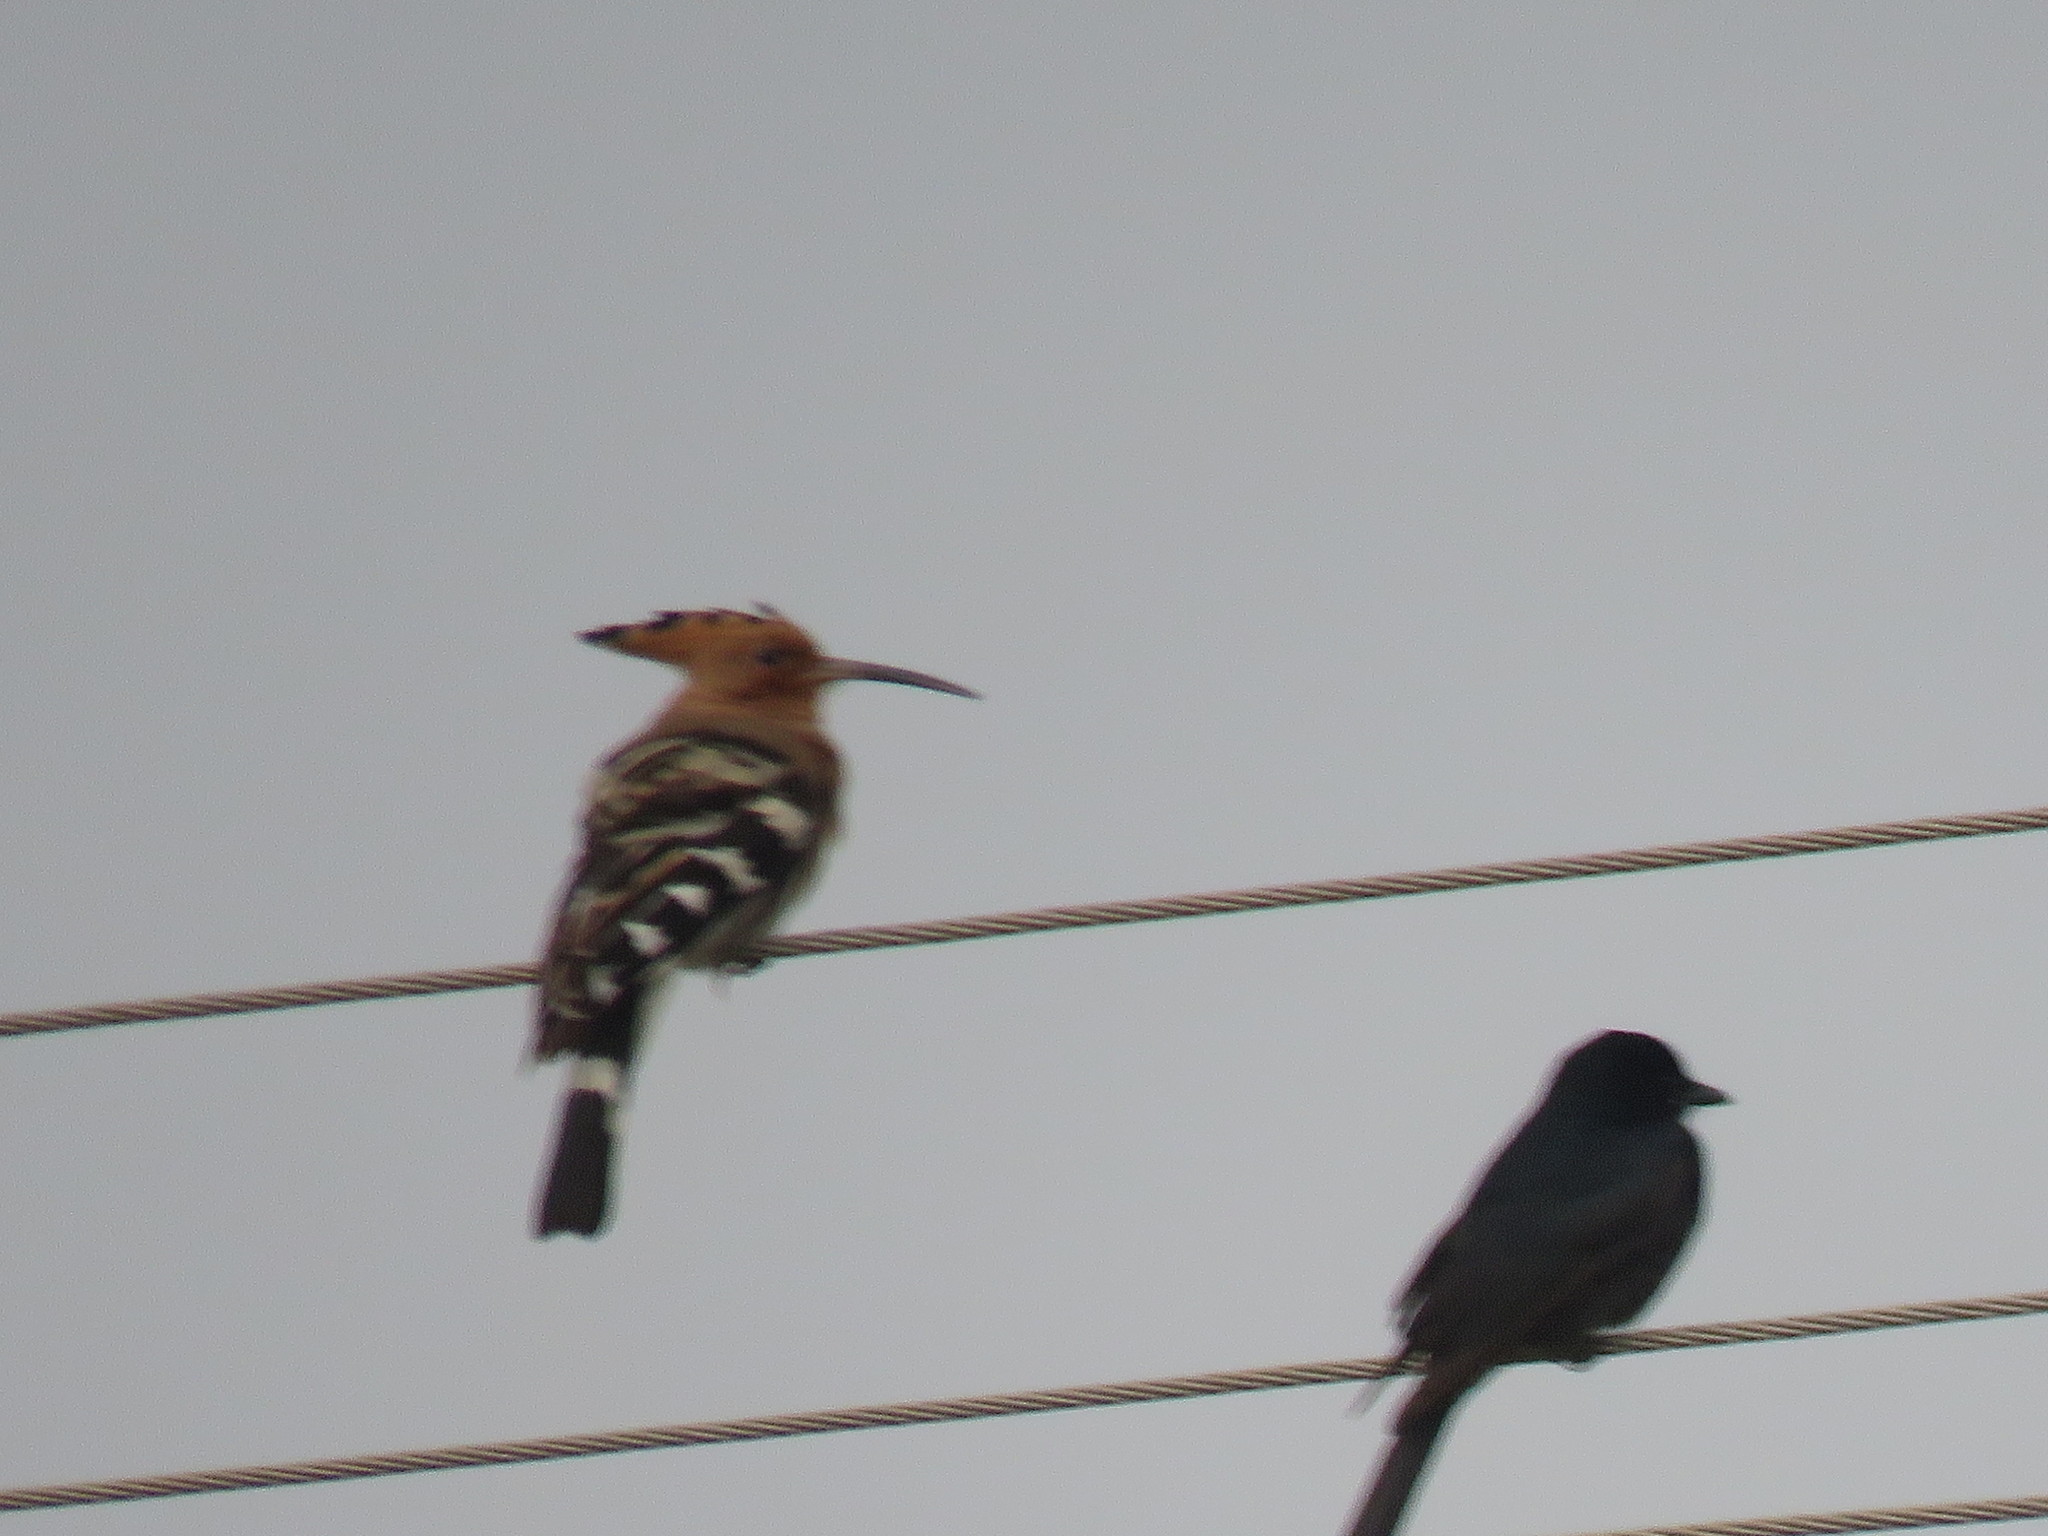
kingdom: Animalia
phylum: Chordata
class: Aves
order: Bucerotiformes
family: Upupidae
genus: Upupa
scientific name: Upupa epops
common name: Eurasian hoopoe
